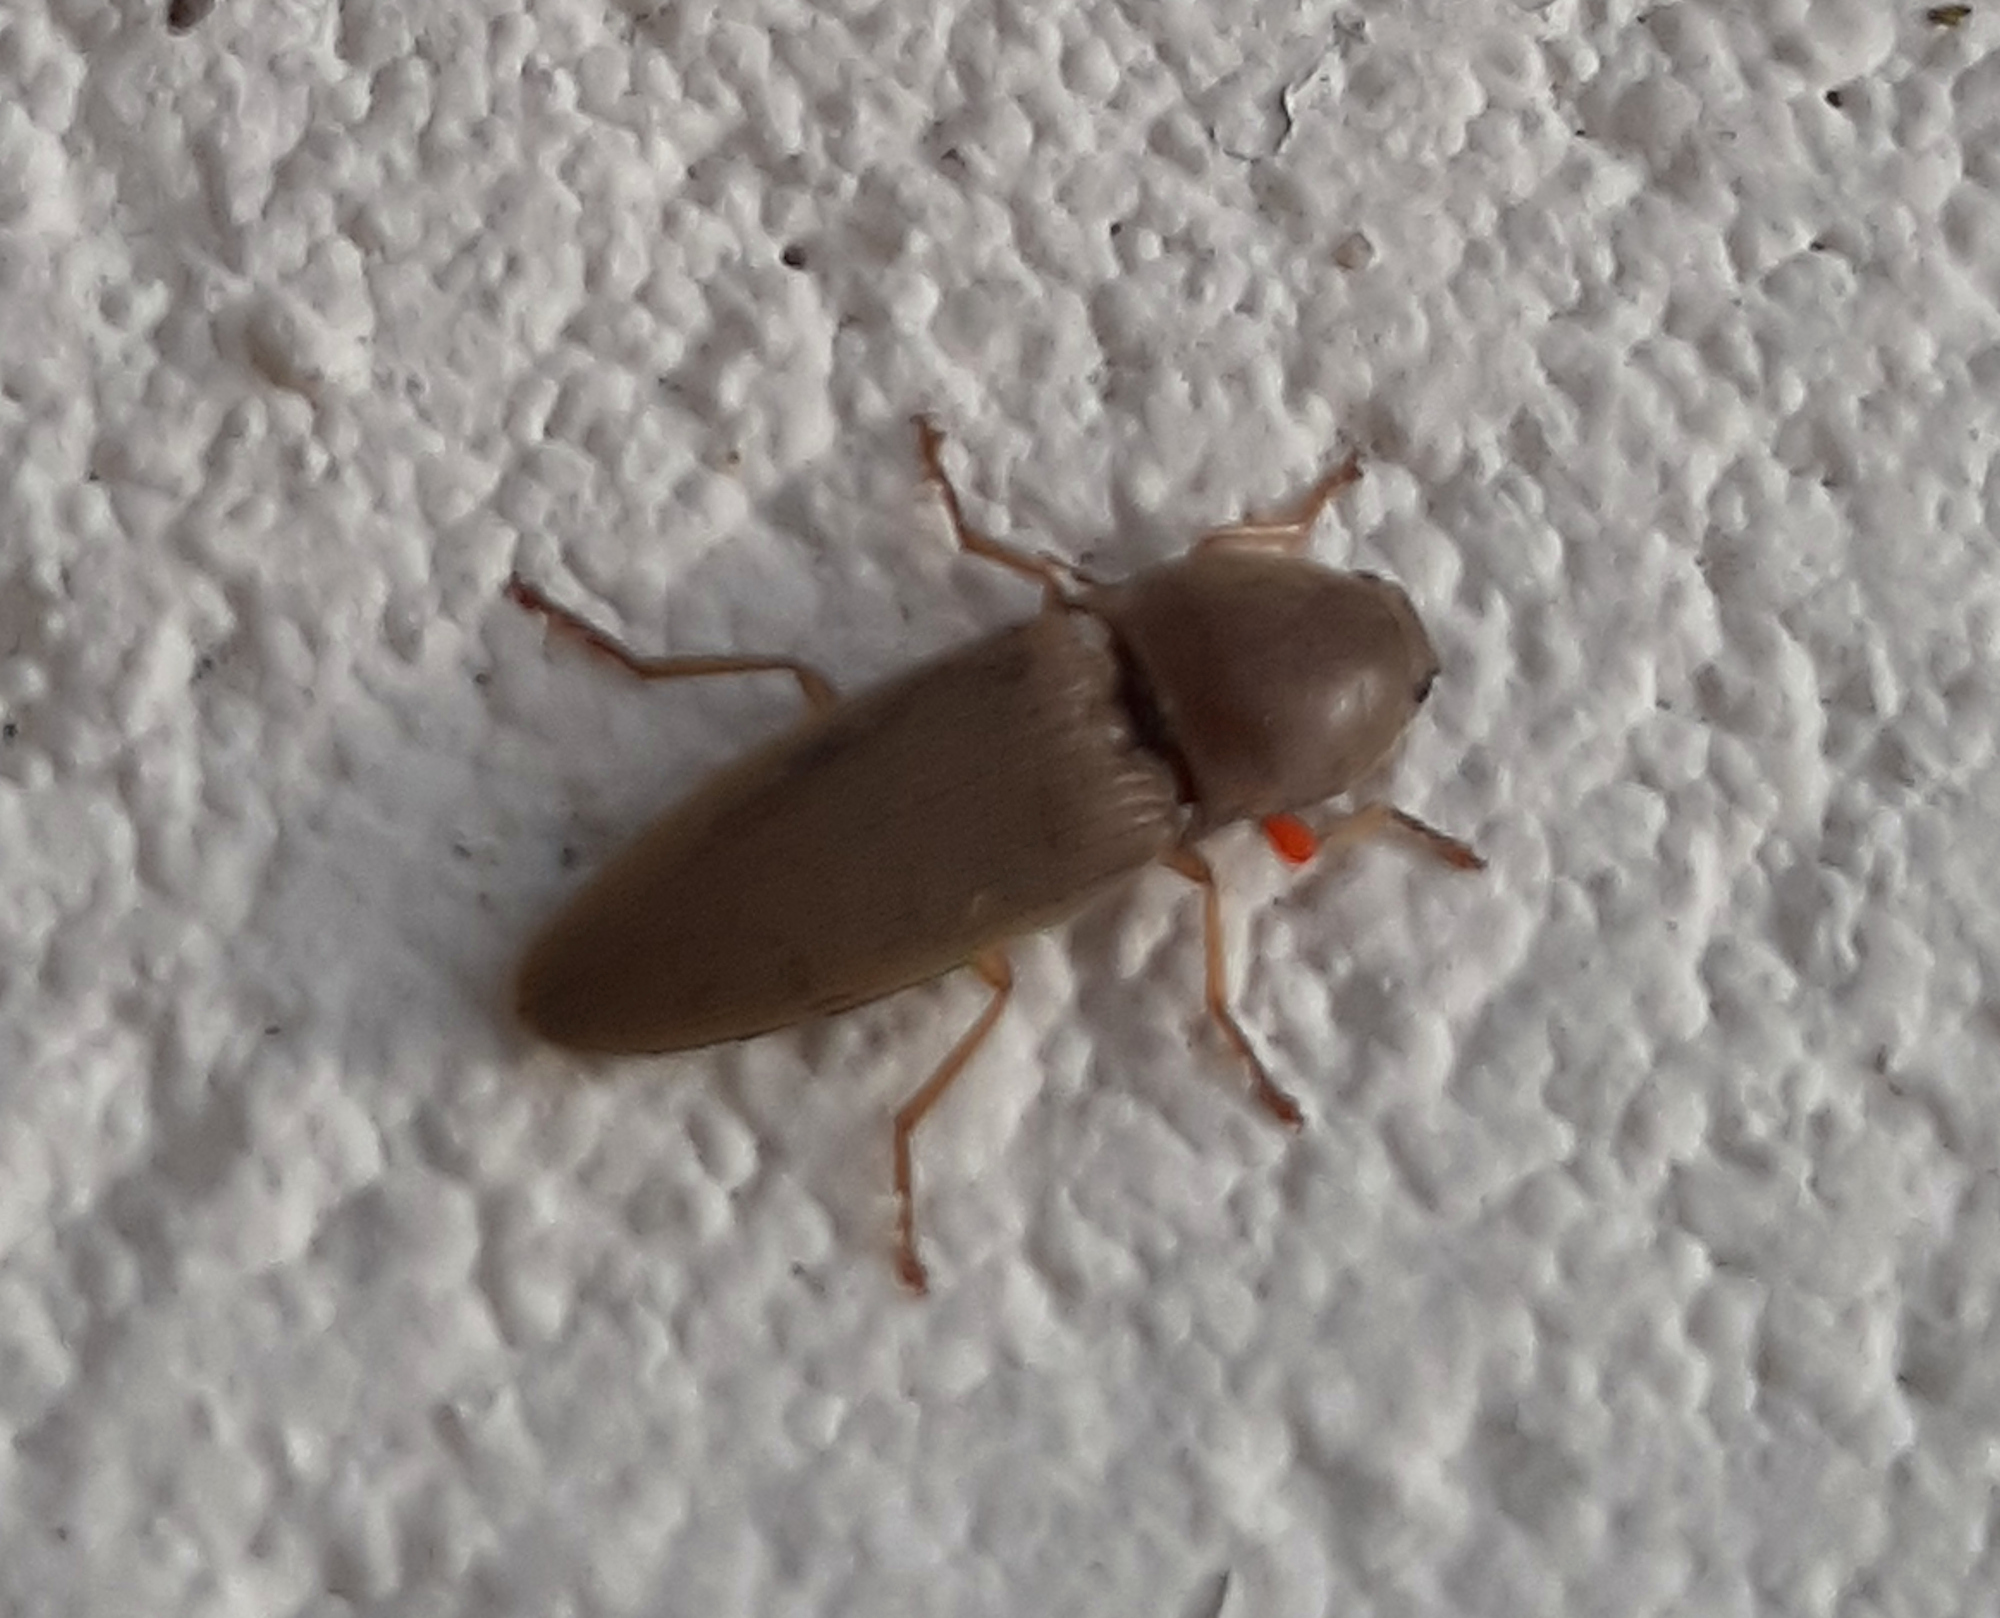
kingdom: Animalia
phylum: Arthropoda
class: Insecta
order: Coleoptera
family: Elateridae
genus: Monocrepidius
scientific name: Monocrepidius lividus
